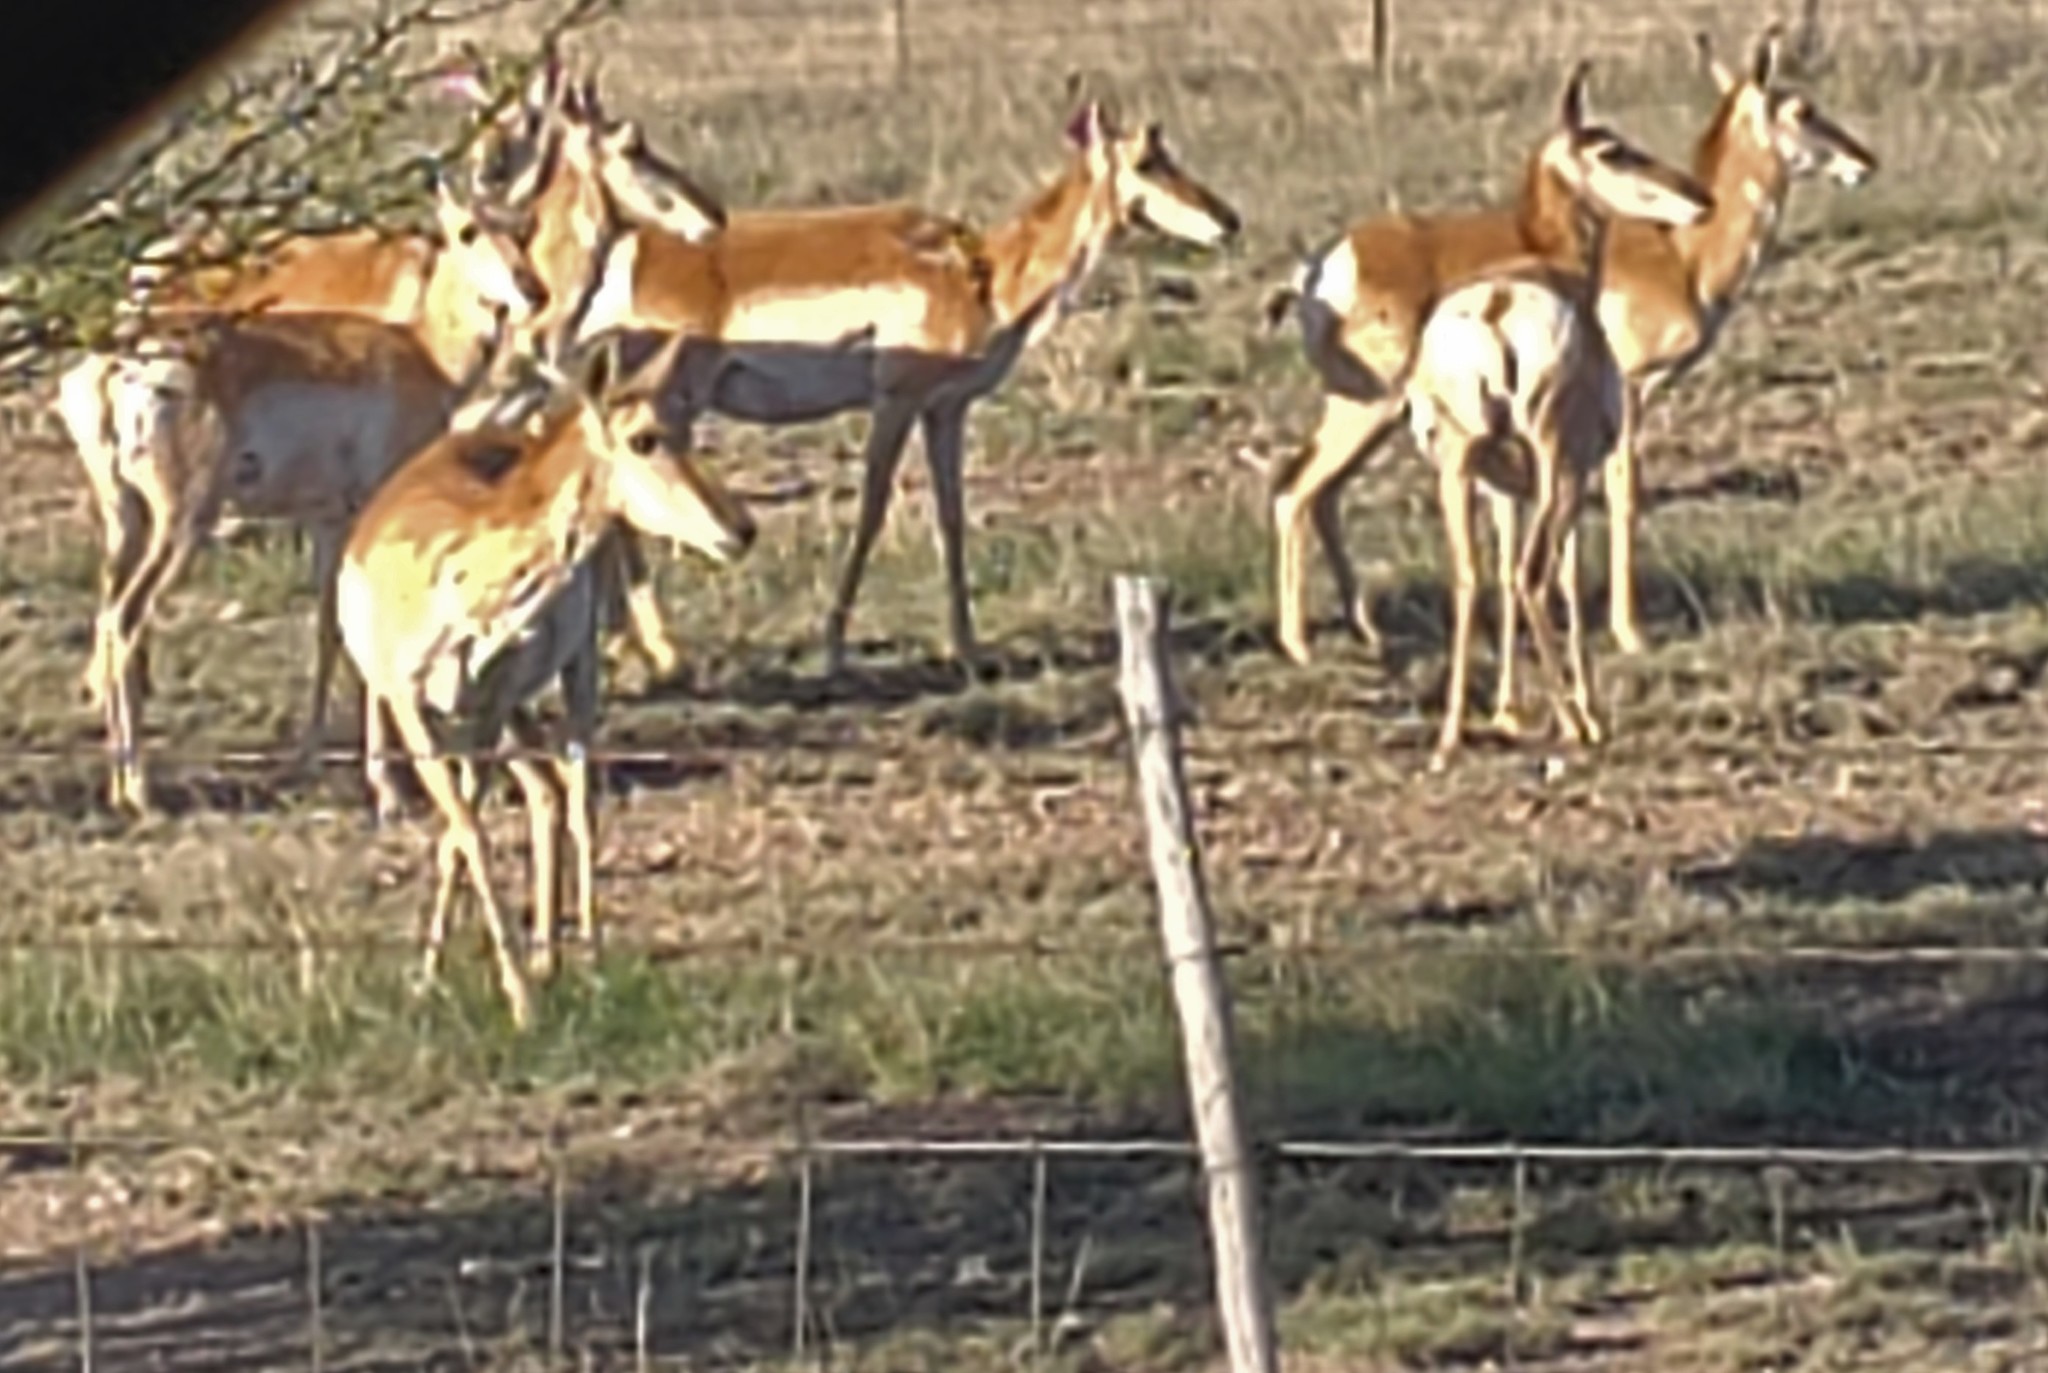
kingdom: Animalia
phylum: Chordata
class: Mammalia
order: Artiodactyla
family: Antilocapridae
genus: Antilocapra
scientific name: Antilocapra americana
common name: Pronghorn
